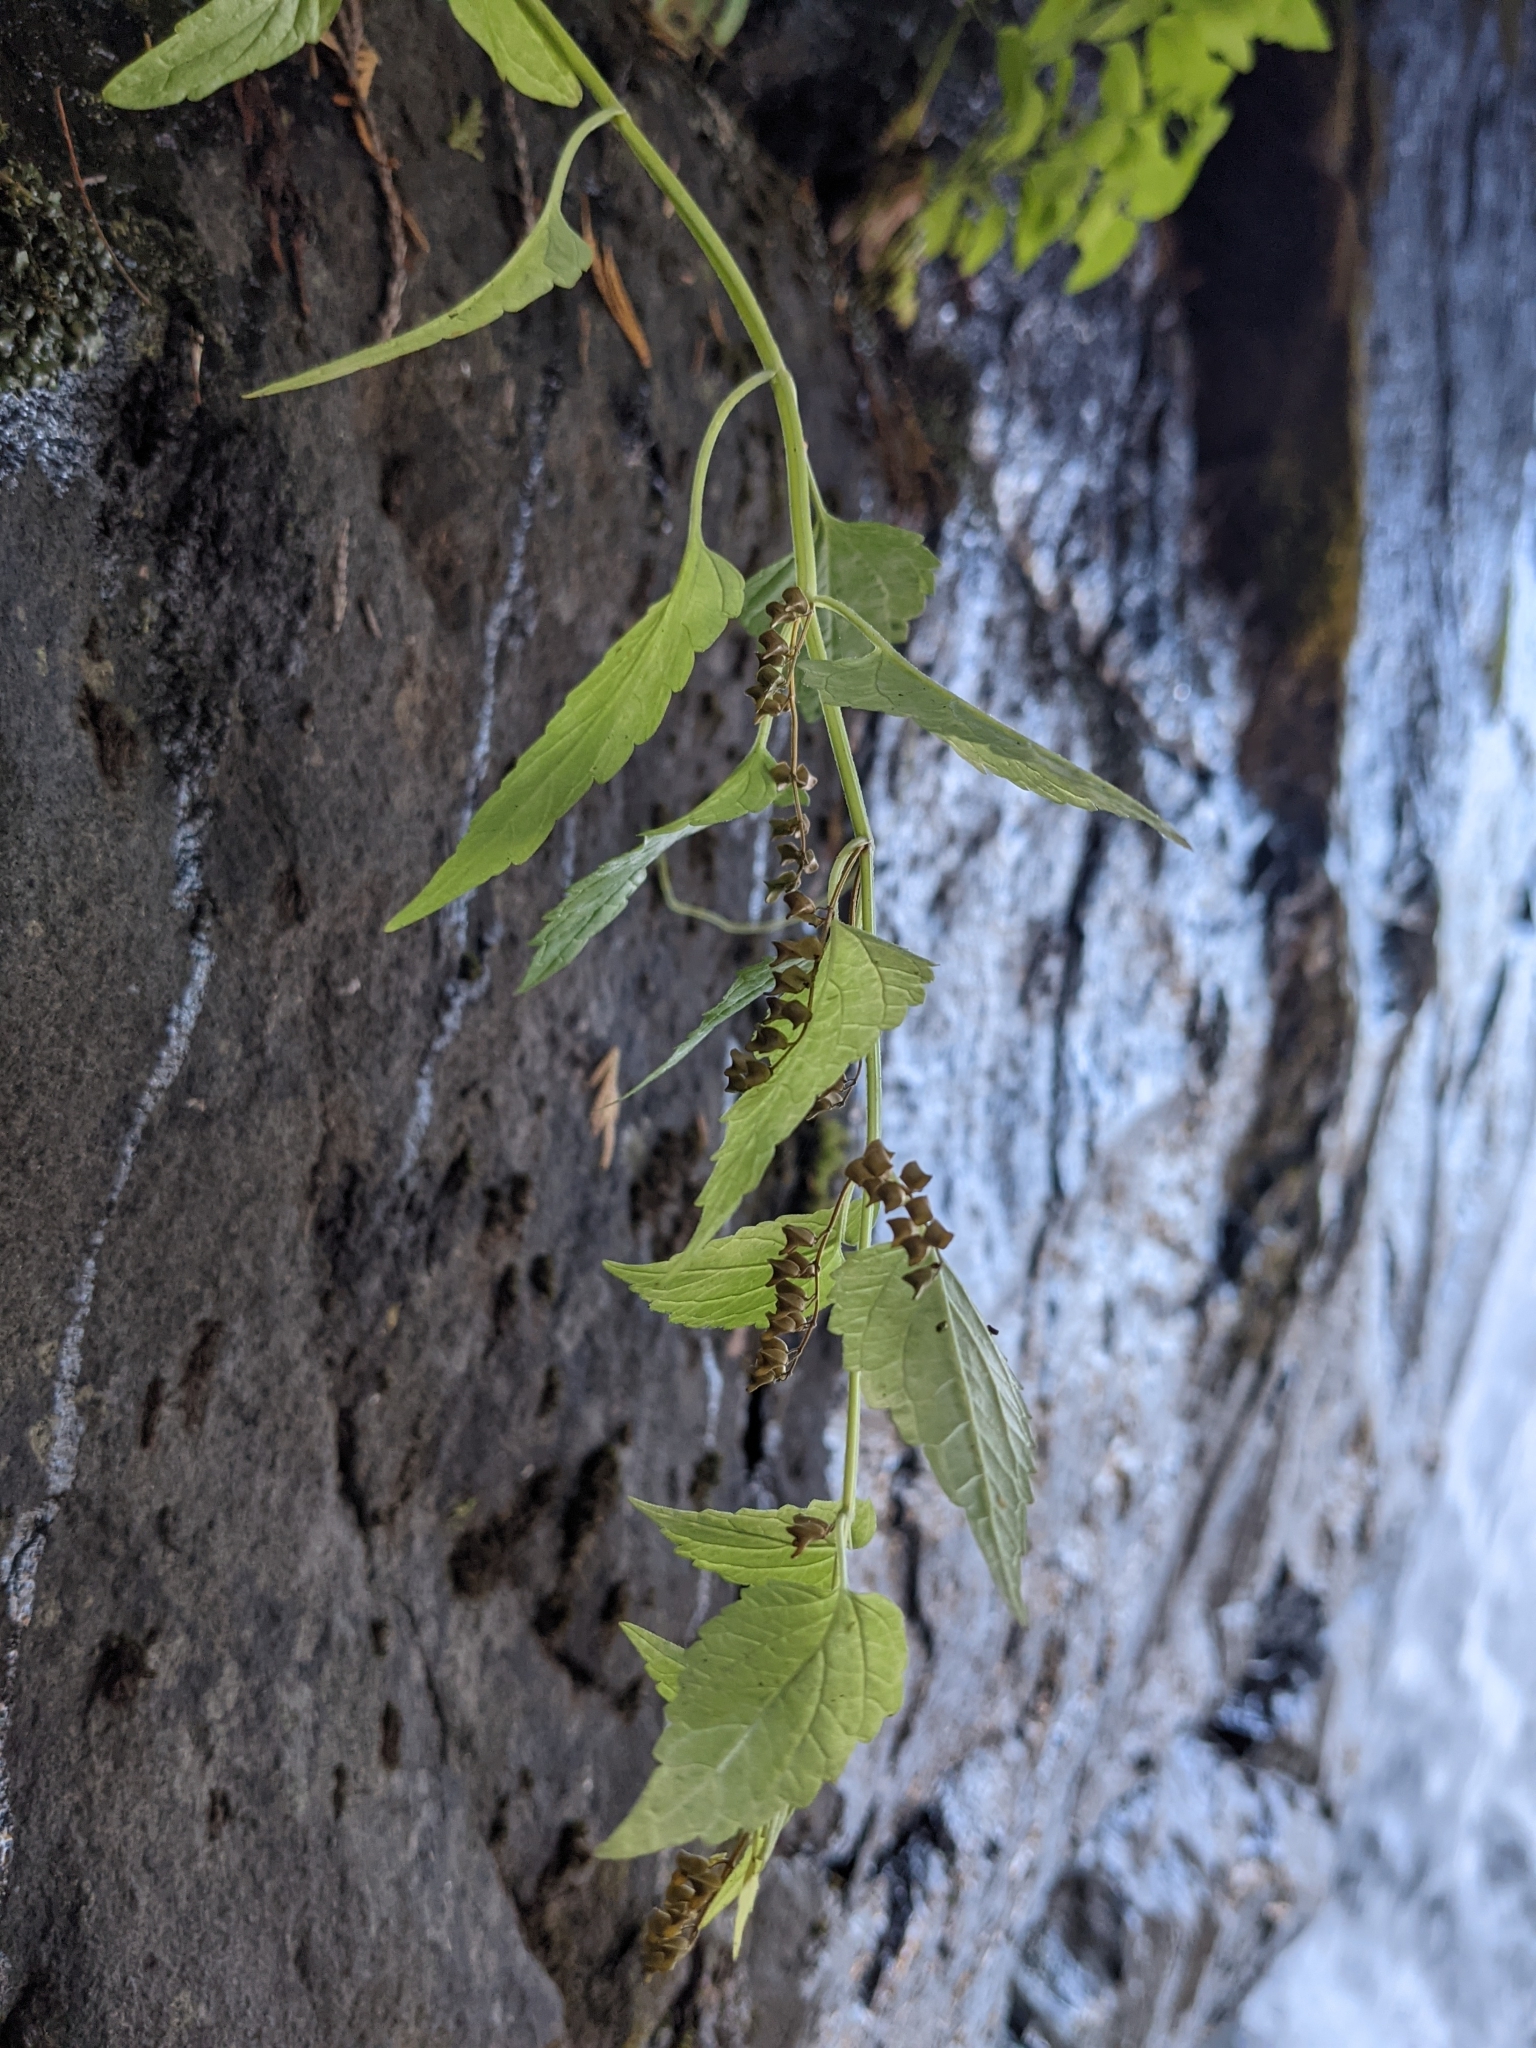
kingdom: Plantae
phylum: Tracheophyta
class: Magnoliopsida
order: Lamiales
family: Lamiaceae
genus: Scutellaria
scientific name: Scutellaria lateriflora
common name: Blue skullcap
